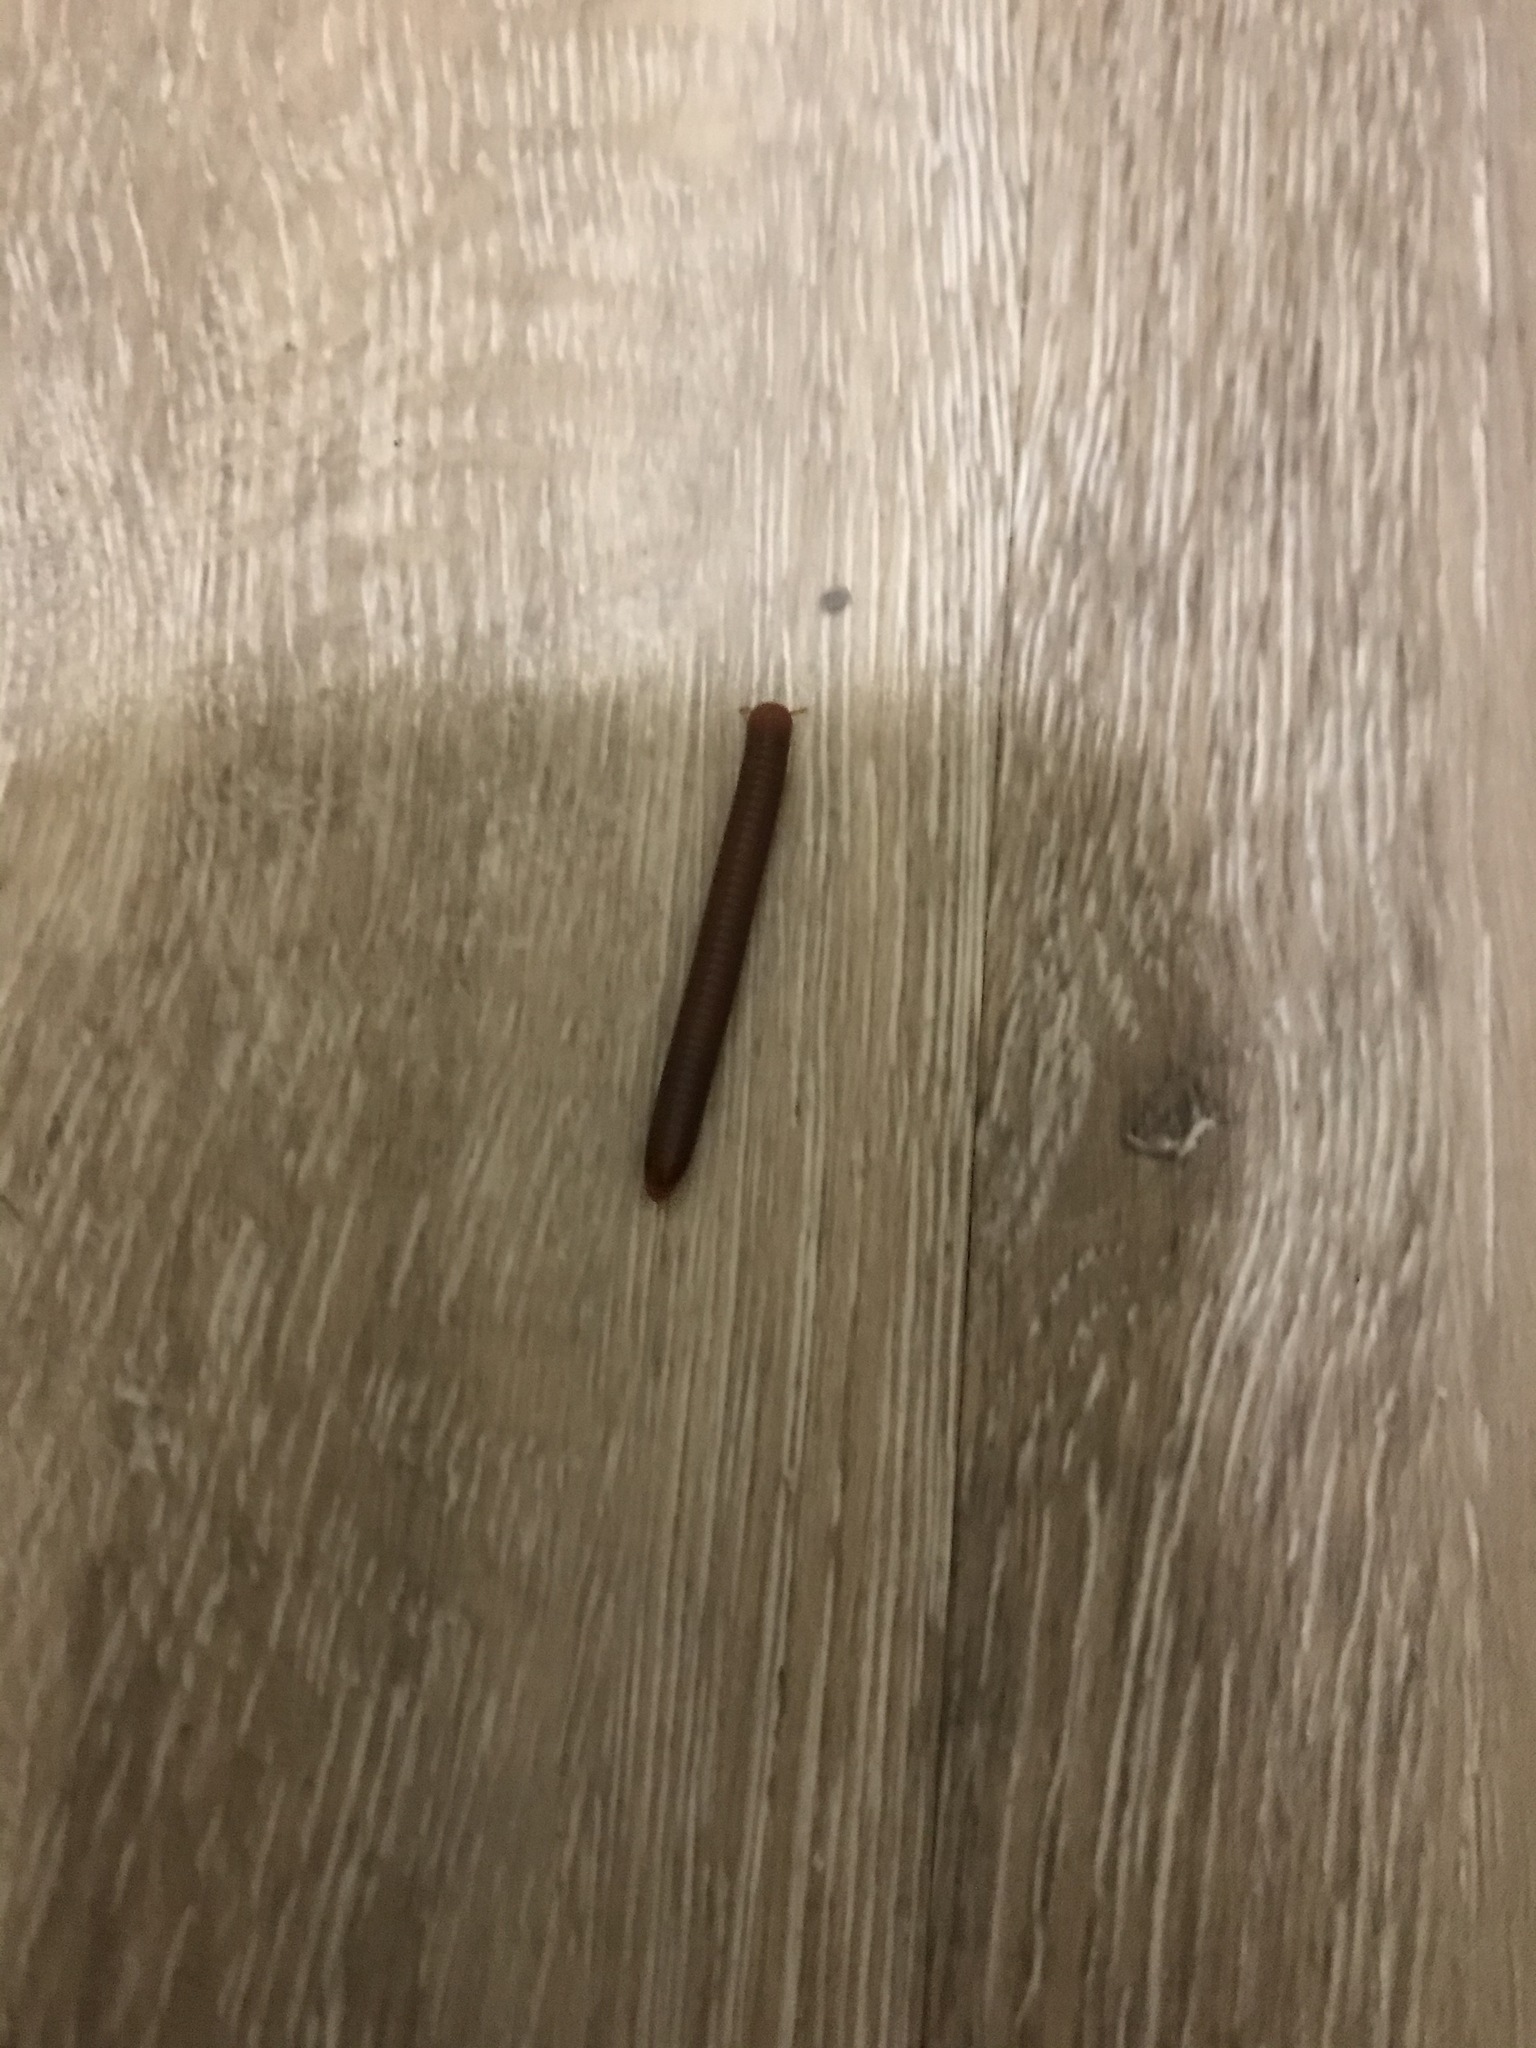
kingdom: Animalia
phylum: Arthropoda
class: Diplopoda
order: Spirobolida
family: Pachybolidae
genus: Trigoniulus
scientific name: Trigoniulus corallinus
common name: Millipede
